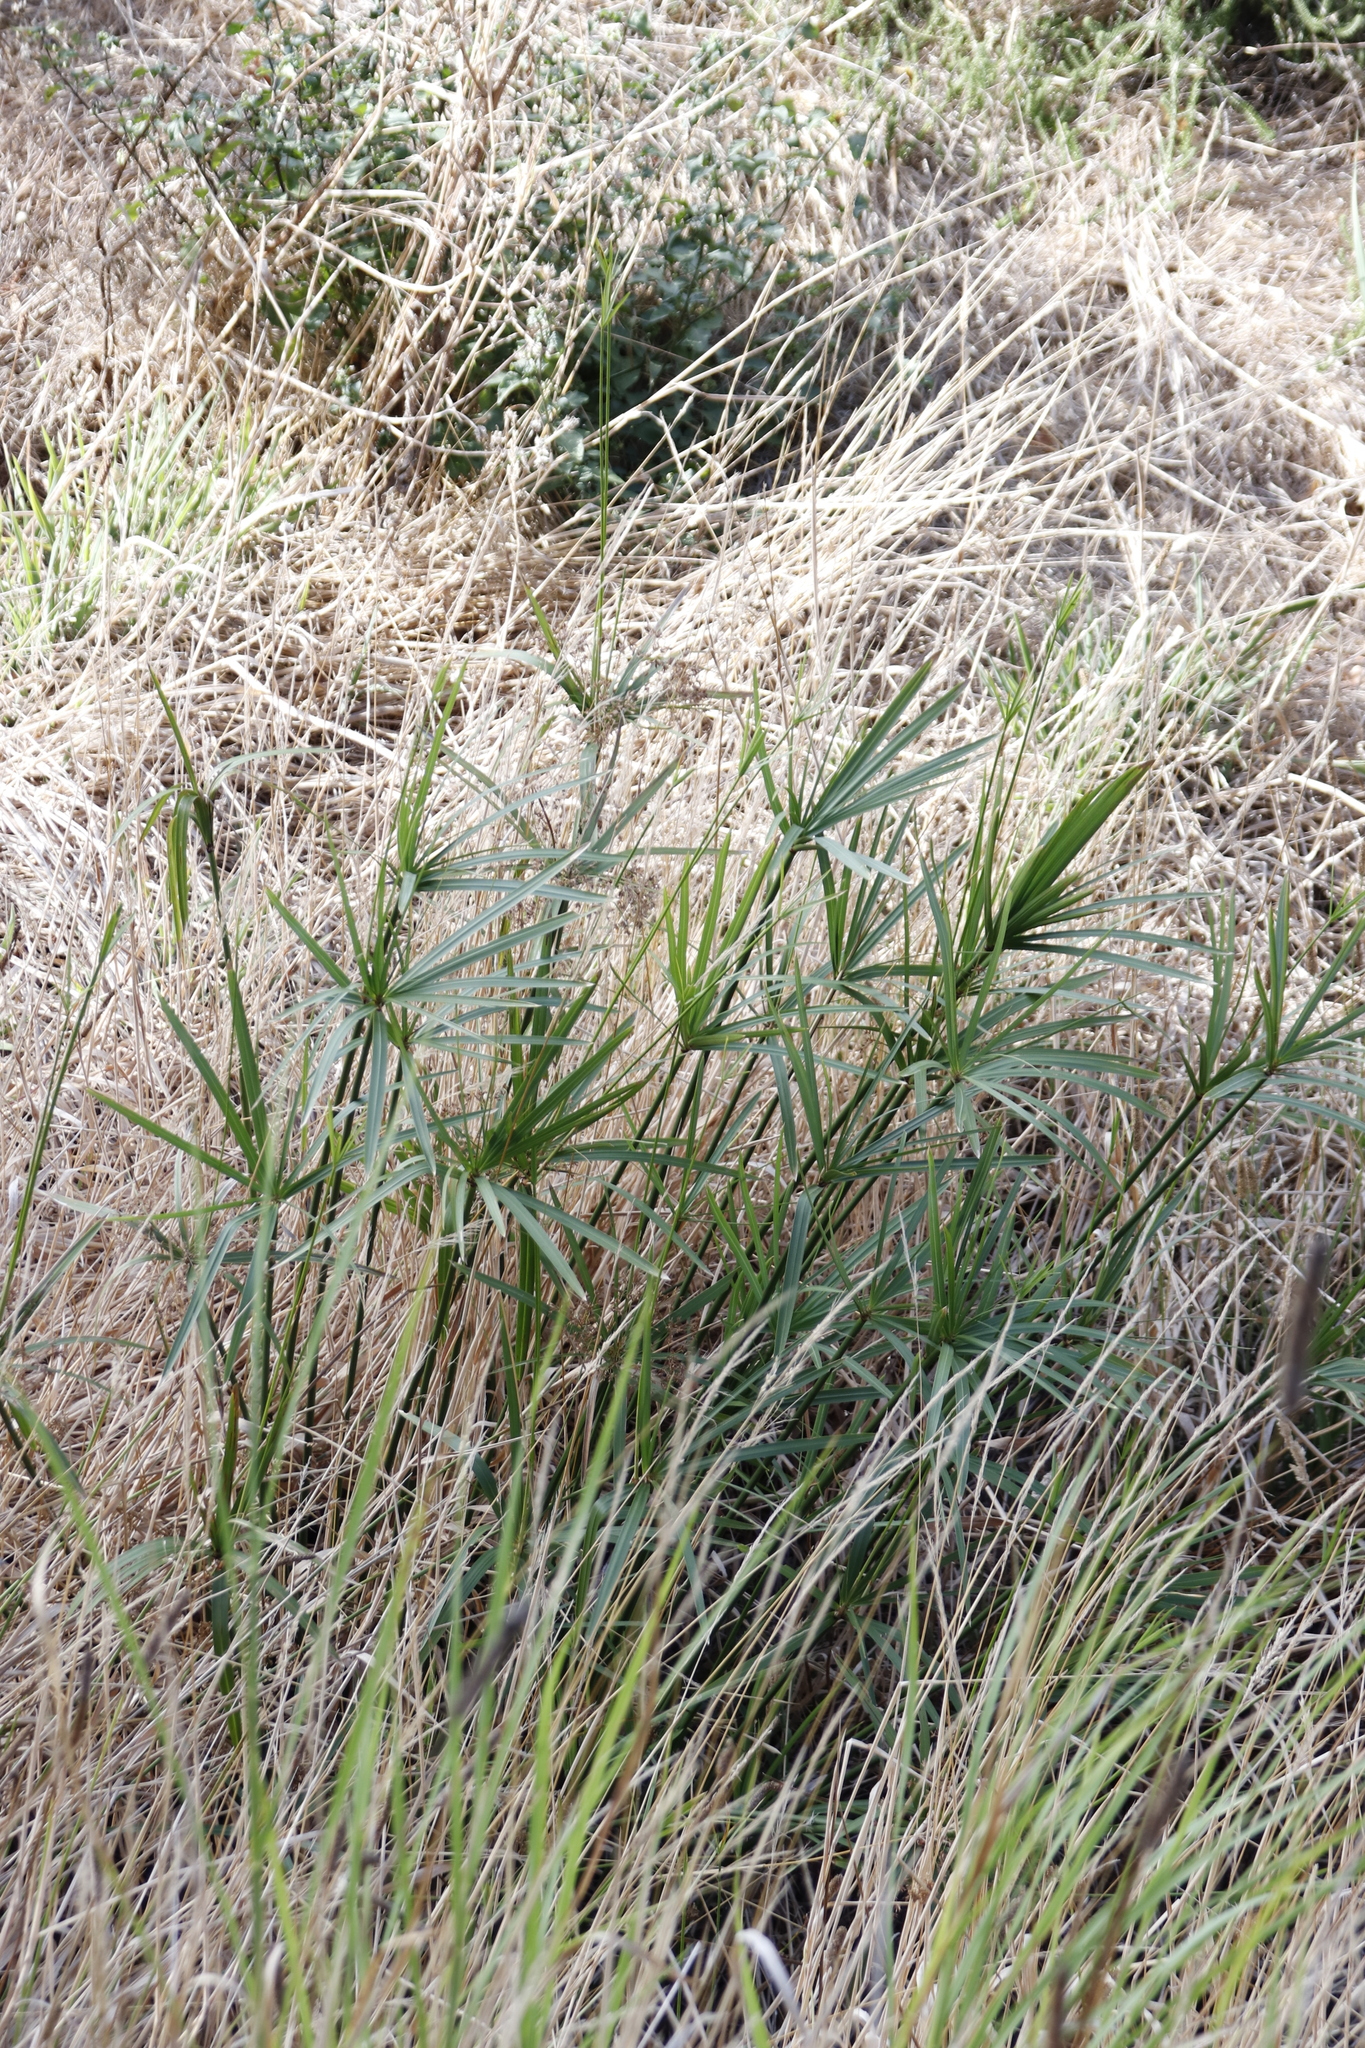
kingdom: Plantae
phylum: Tracheophyta
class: Liliopsida
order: Poales
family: Cyperaceae
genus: Cyperus
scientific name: Cyperus textilis
